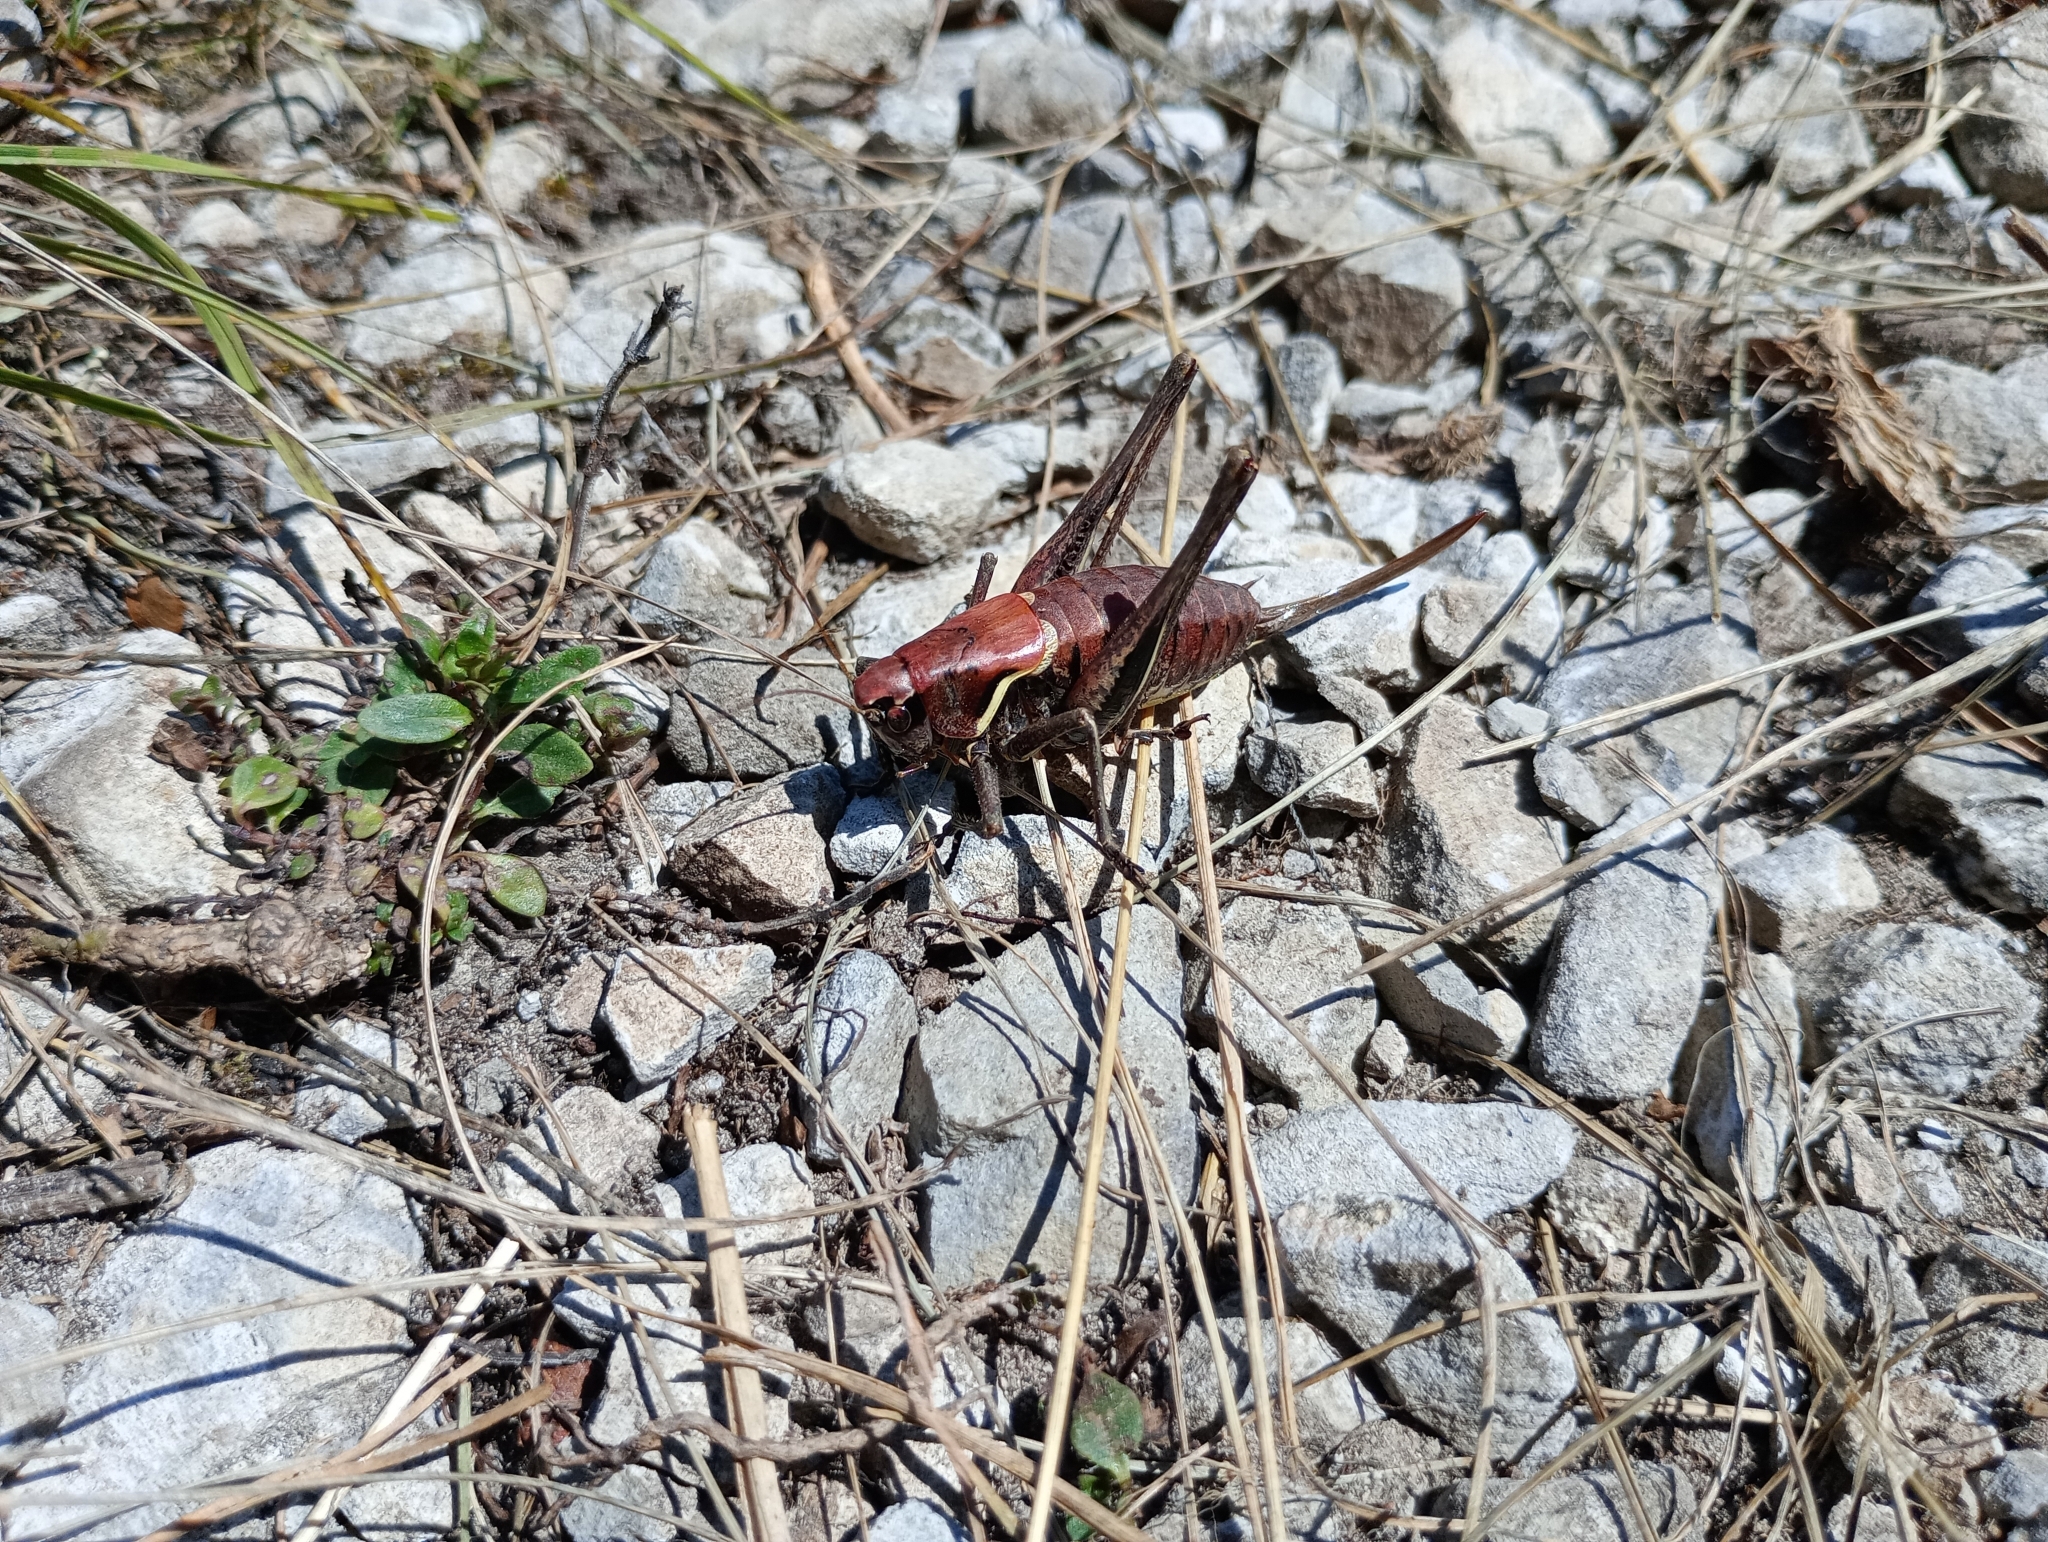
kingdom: Animalia
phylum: Arthropoda
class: Insecta
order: Orthoptera
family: Tettigoniidae
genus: Pholidoptera
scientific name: Pholidoptera aptera
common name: Alpine dark bush-cricket
